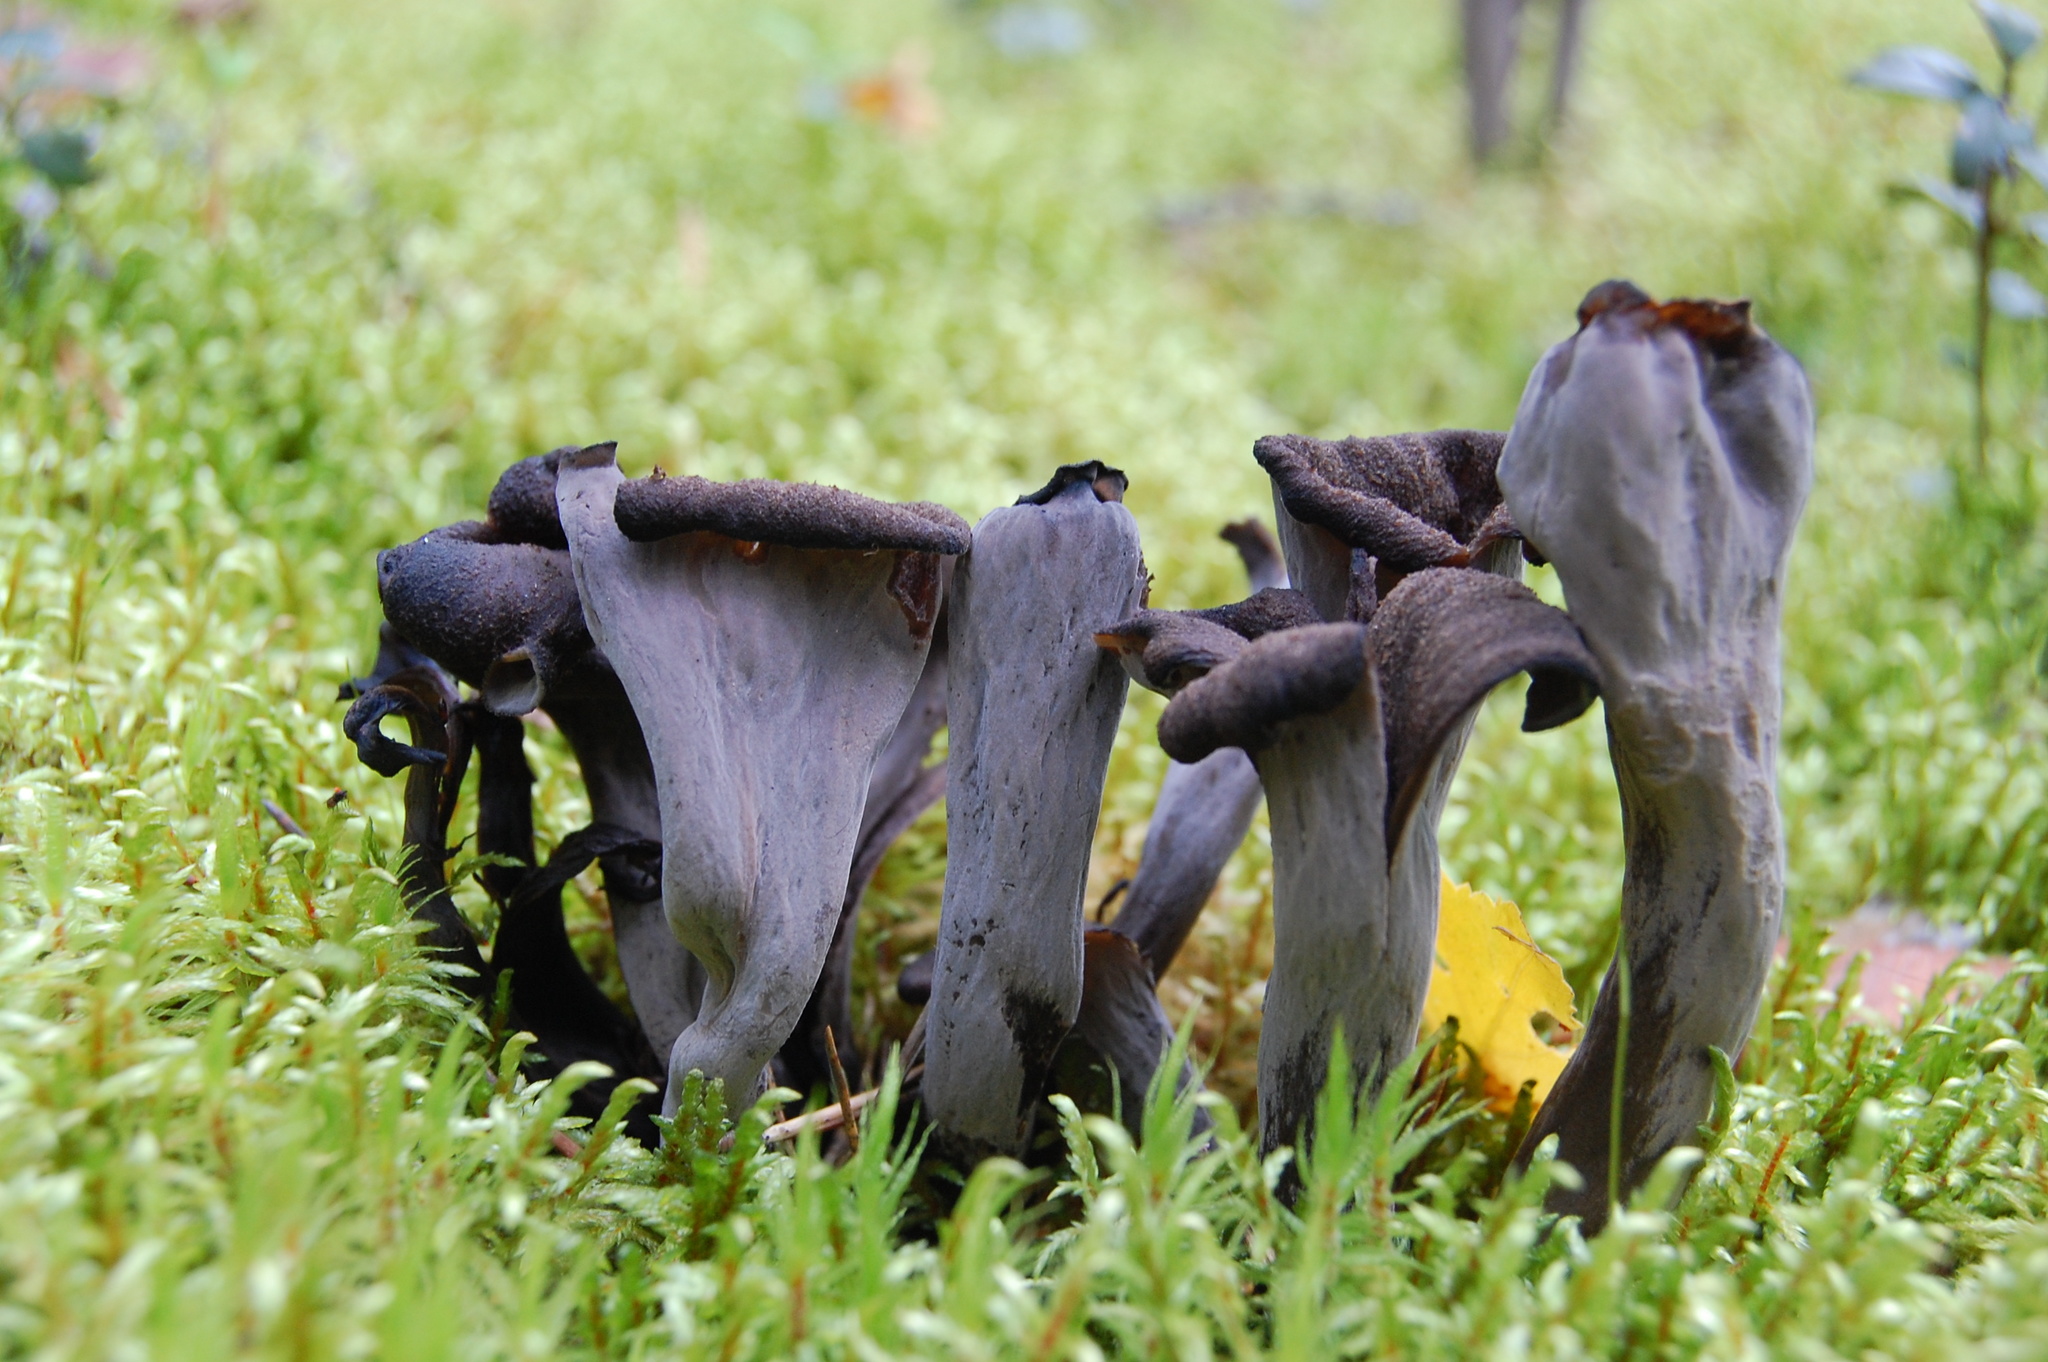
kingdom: Fungi
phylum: Basidiomycota
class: Agaricomycetes
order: Cantharellales
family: Hydnaceae
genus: Craterellus
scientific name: Craterellus cornucopioides
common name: Horn of plenty
